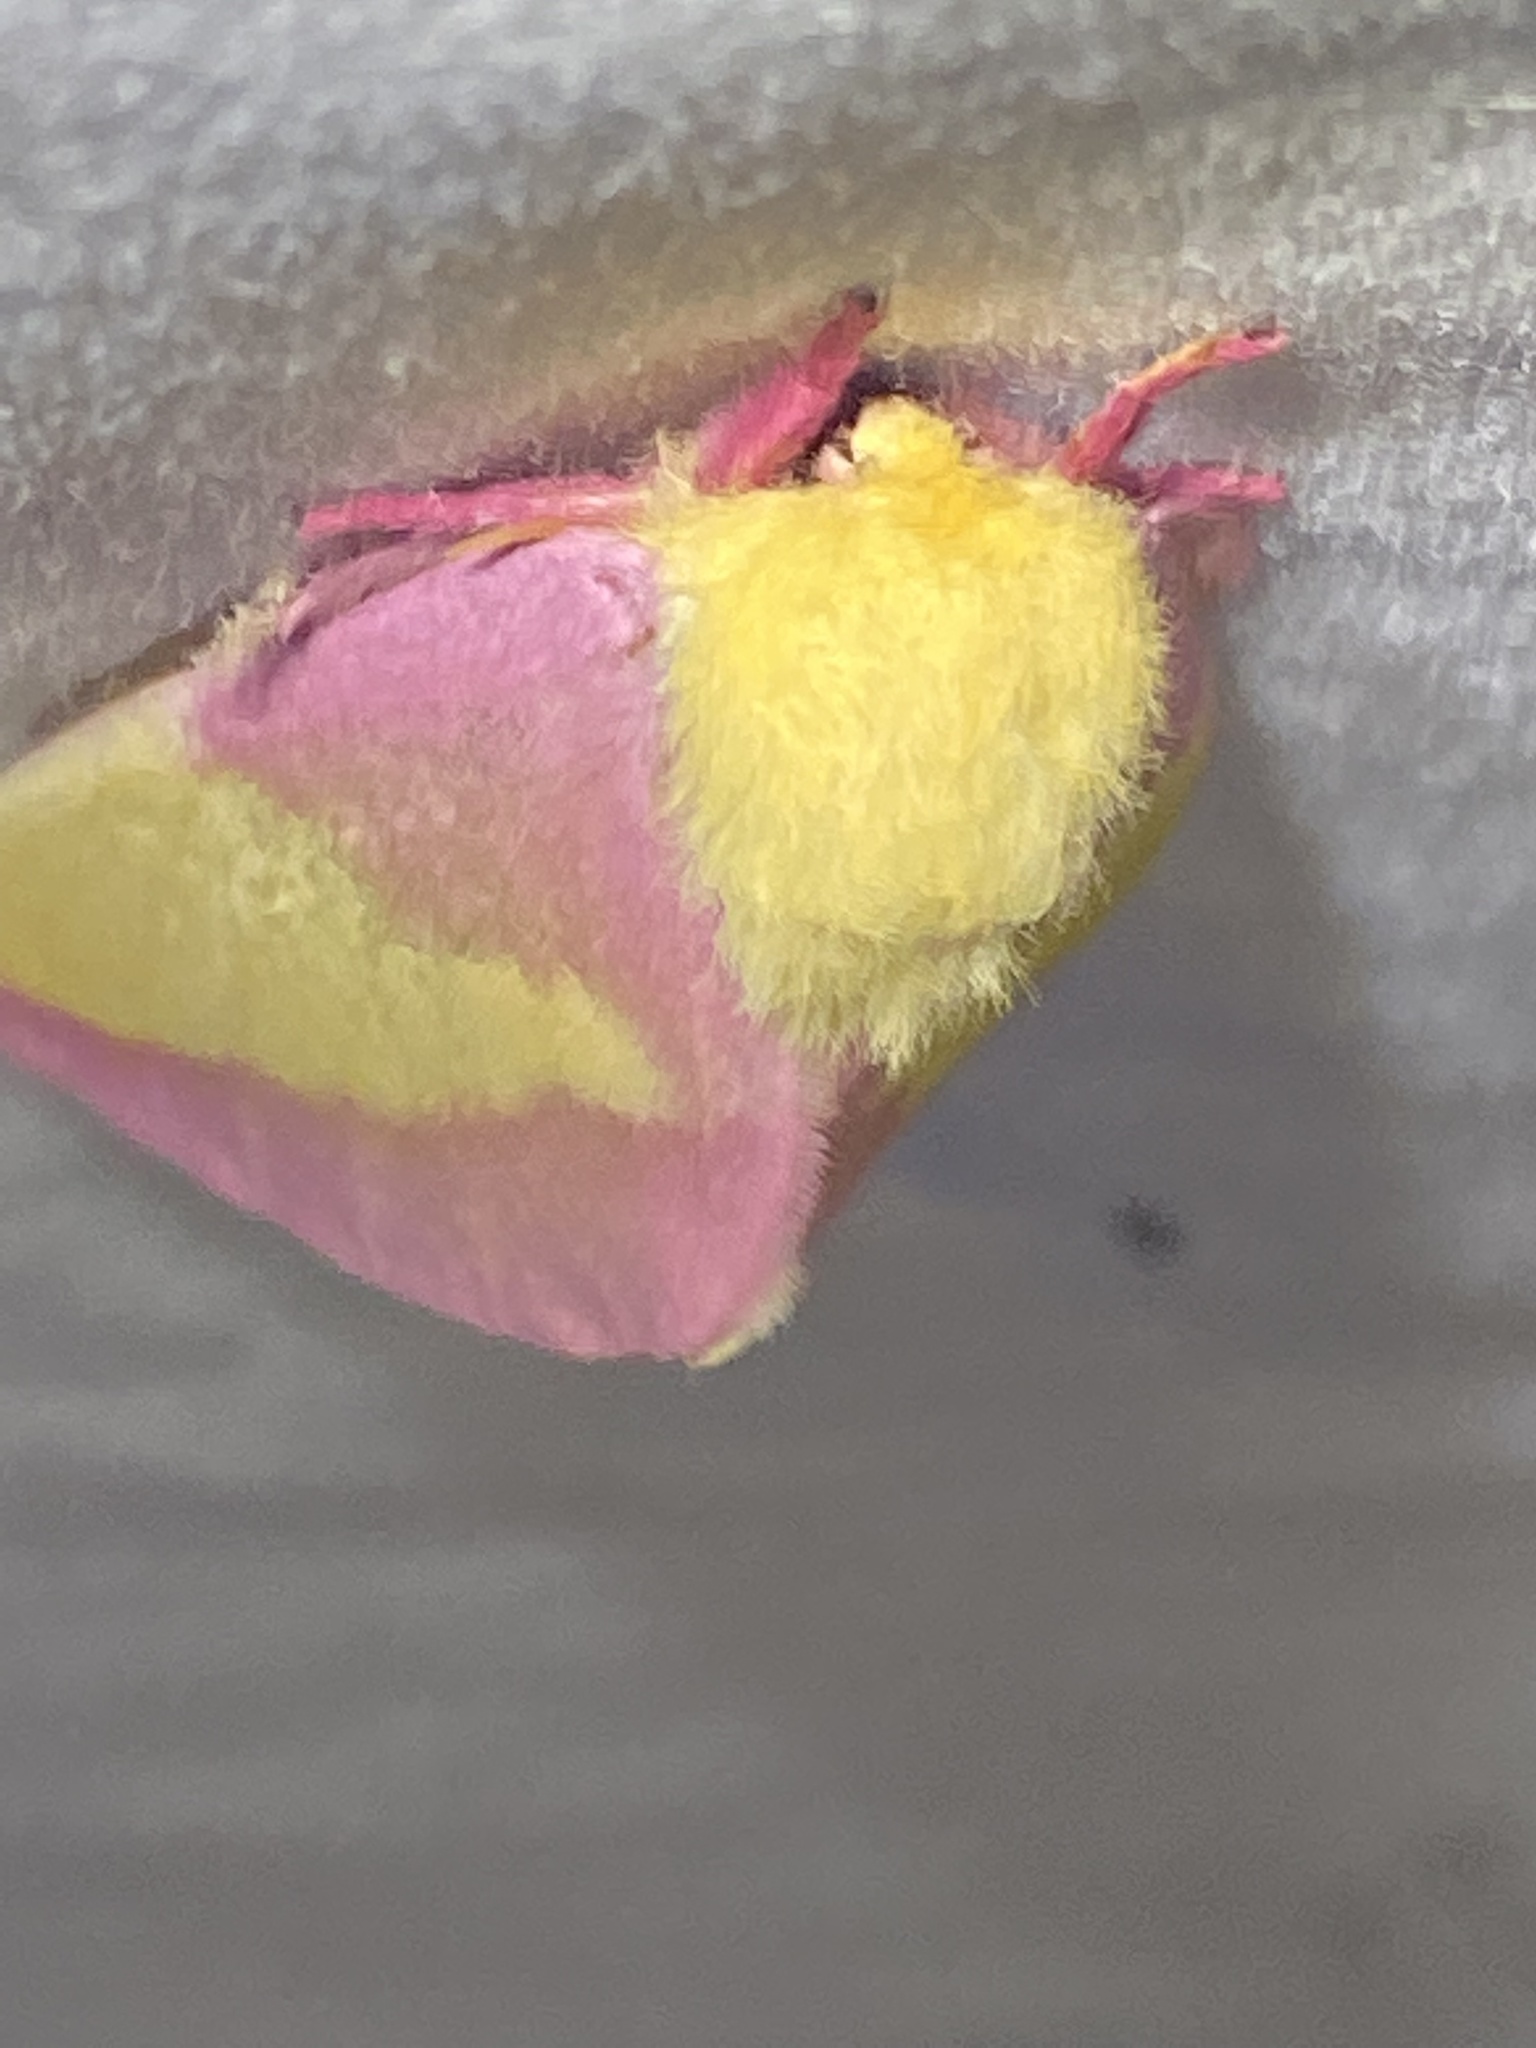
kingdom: Animalia
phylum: Arthropoda
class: Insecta
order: Lepidoptera
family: Saturniidae
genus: Dryocampa
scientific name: Dryocampa rubicunda
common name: Rosy maple moth
